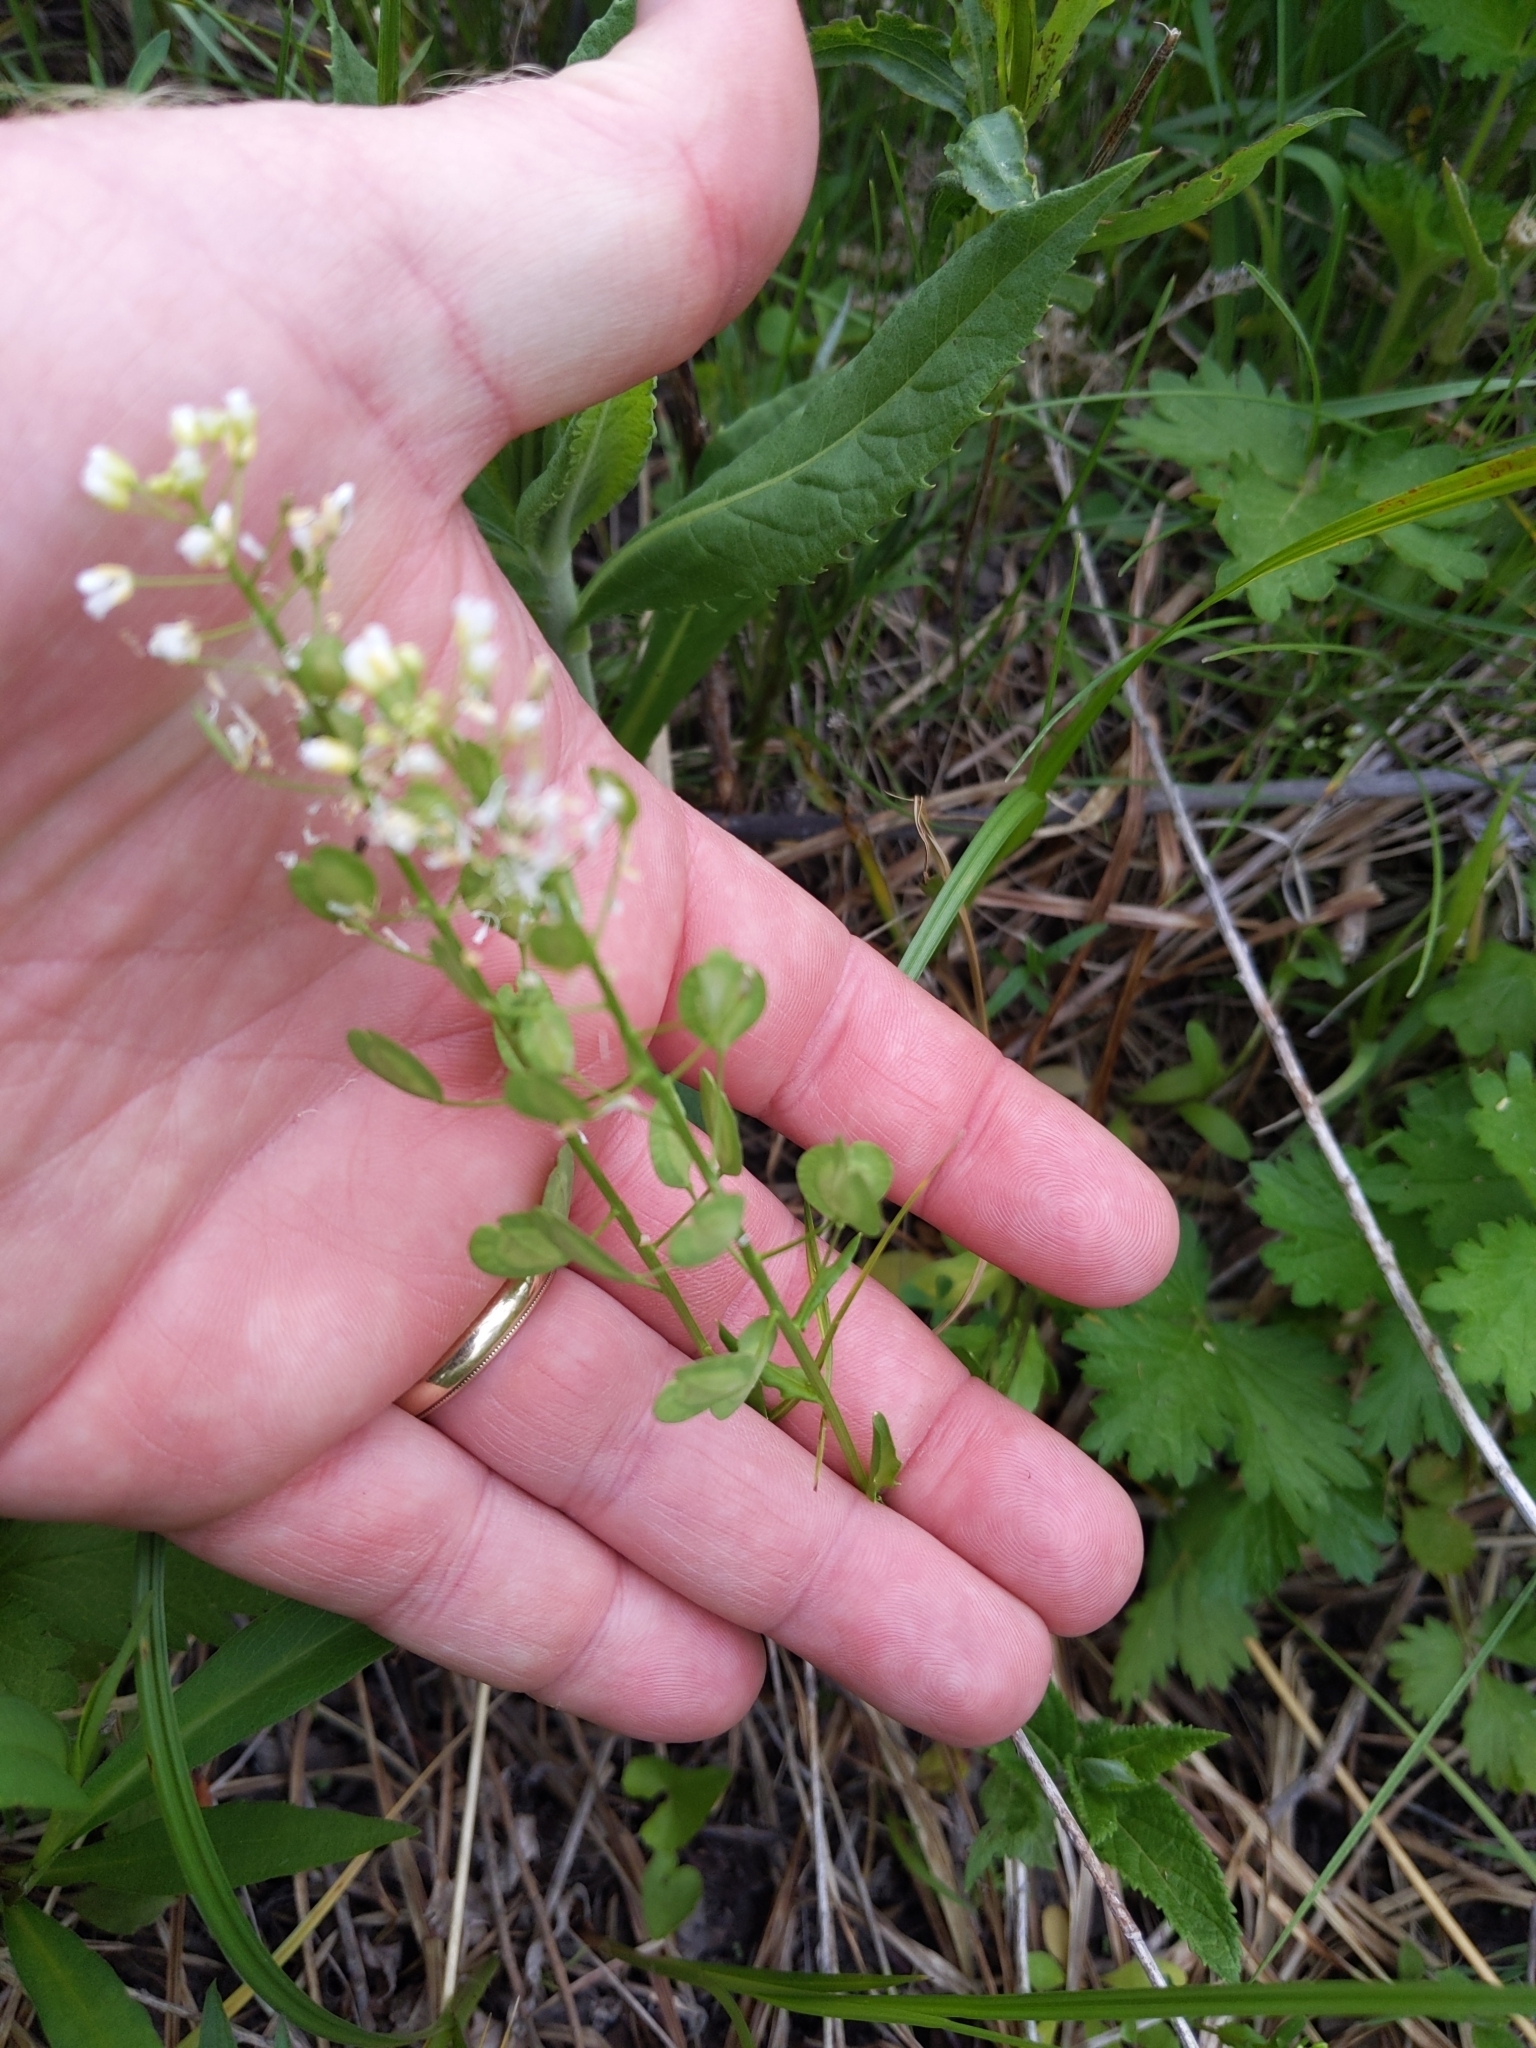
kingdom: Plantae
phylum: Tracheophyta
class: Magnoliopsida
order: Brassicales
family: Brassicaceae
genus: Thlaspi
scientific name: Thlaspi arvense
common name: Field pennycress
